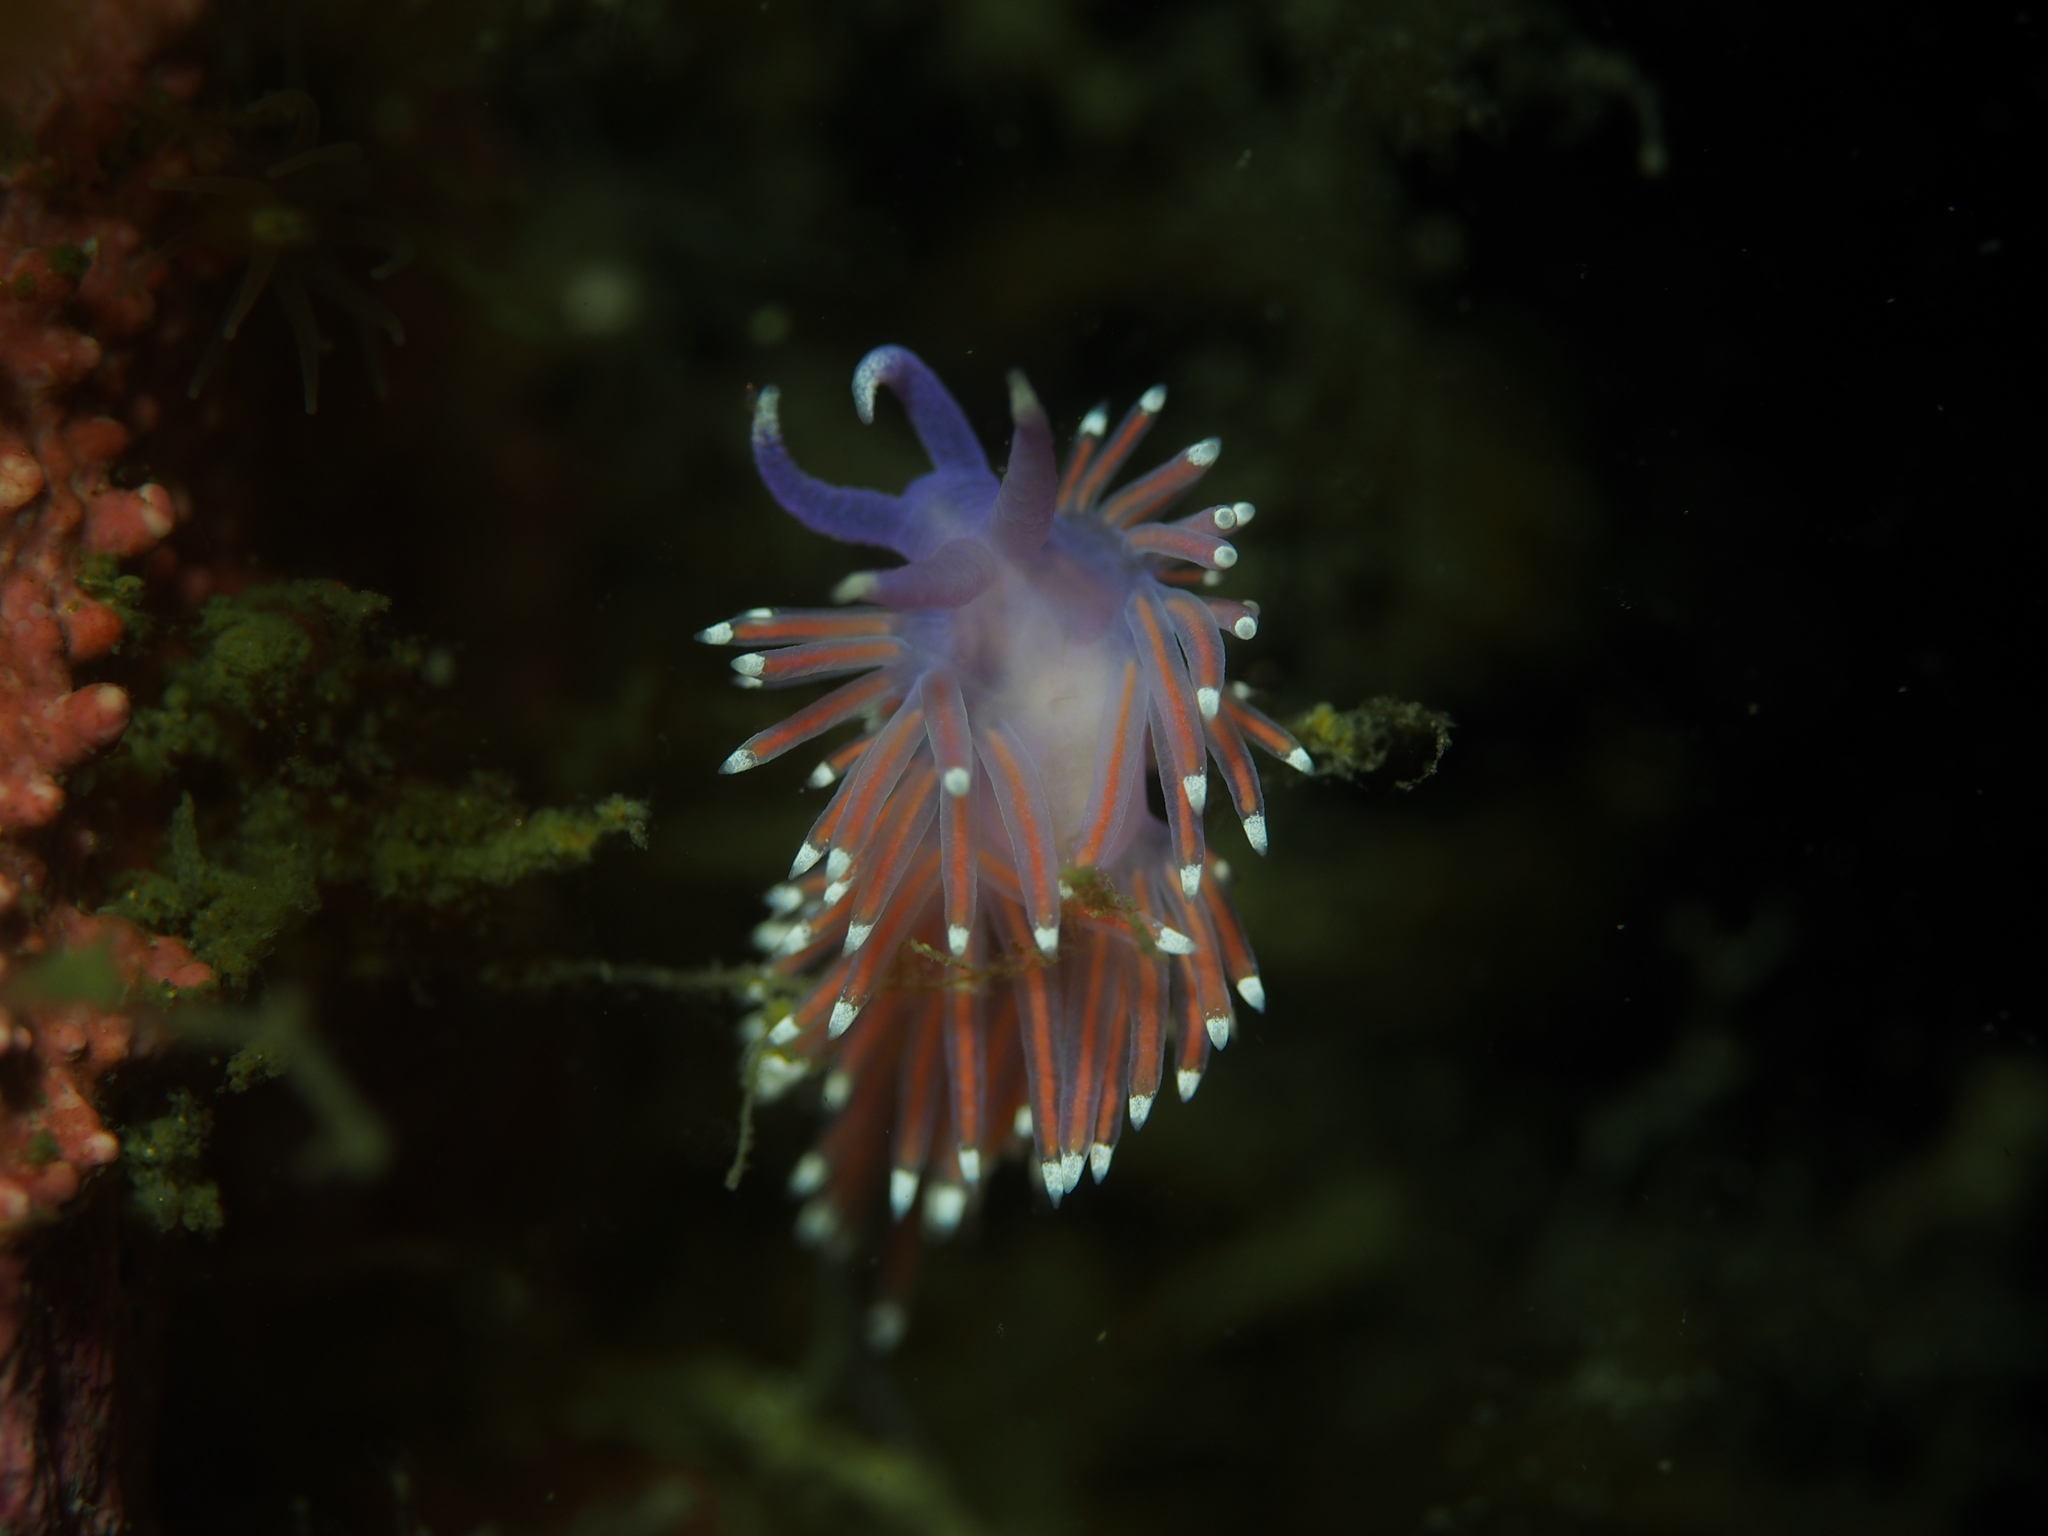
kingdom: Animalia
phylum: Mollusca
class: Gastropoda
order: Nudibranchia
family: Flabellinidae
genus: Edmundsella
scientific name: Edmundsella pedata
